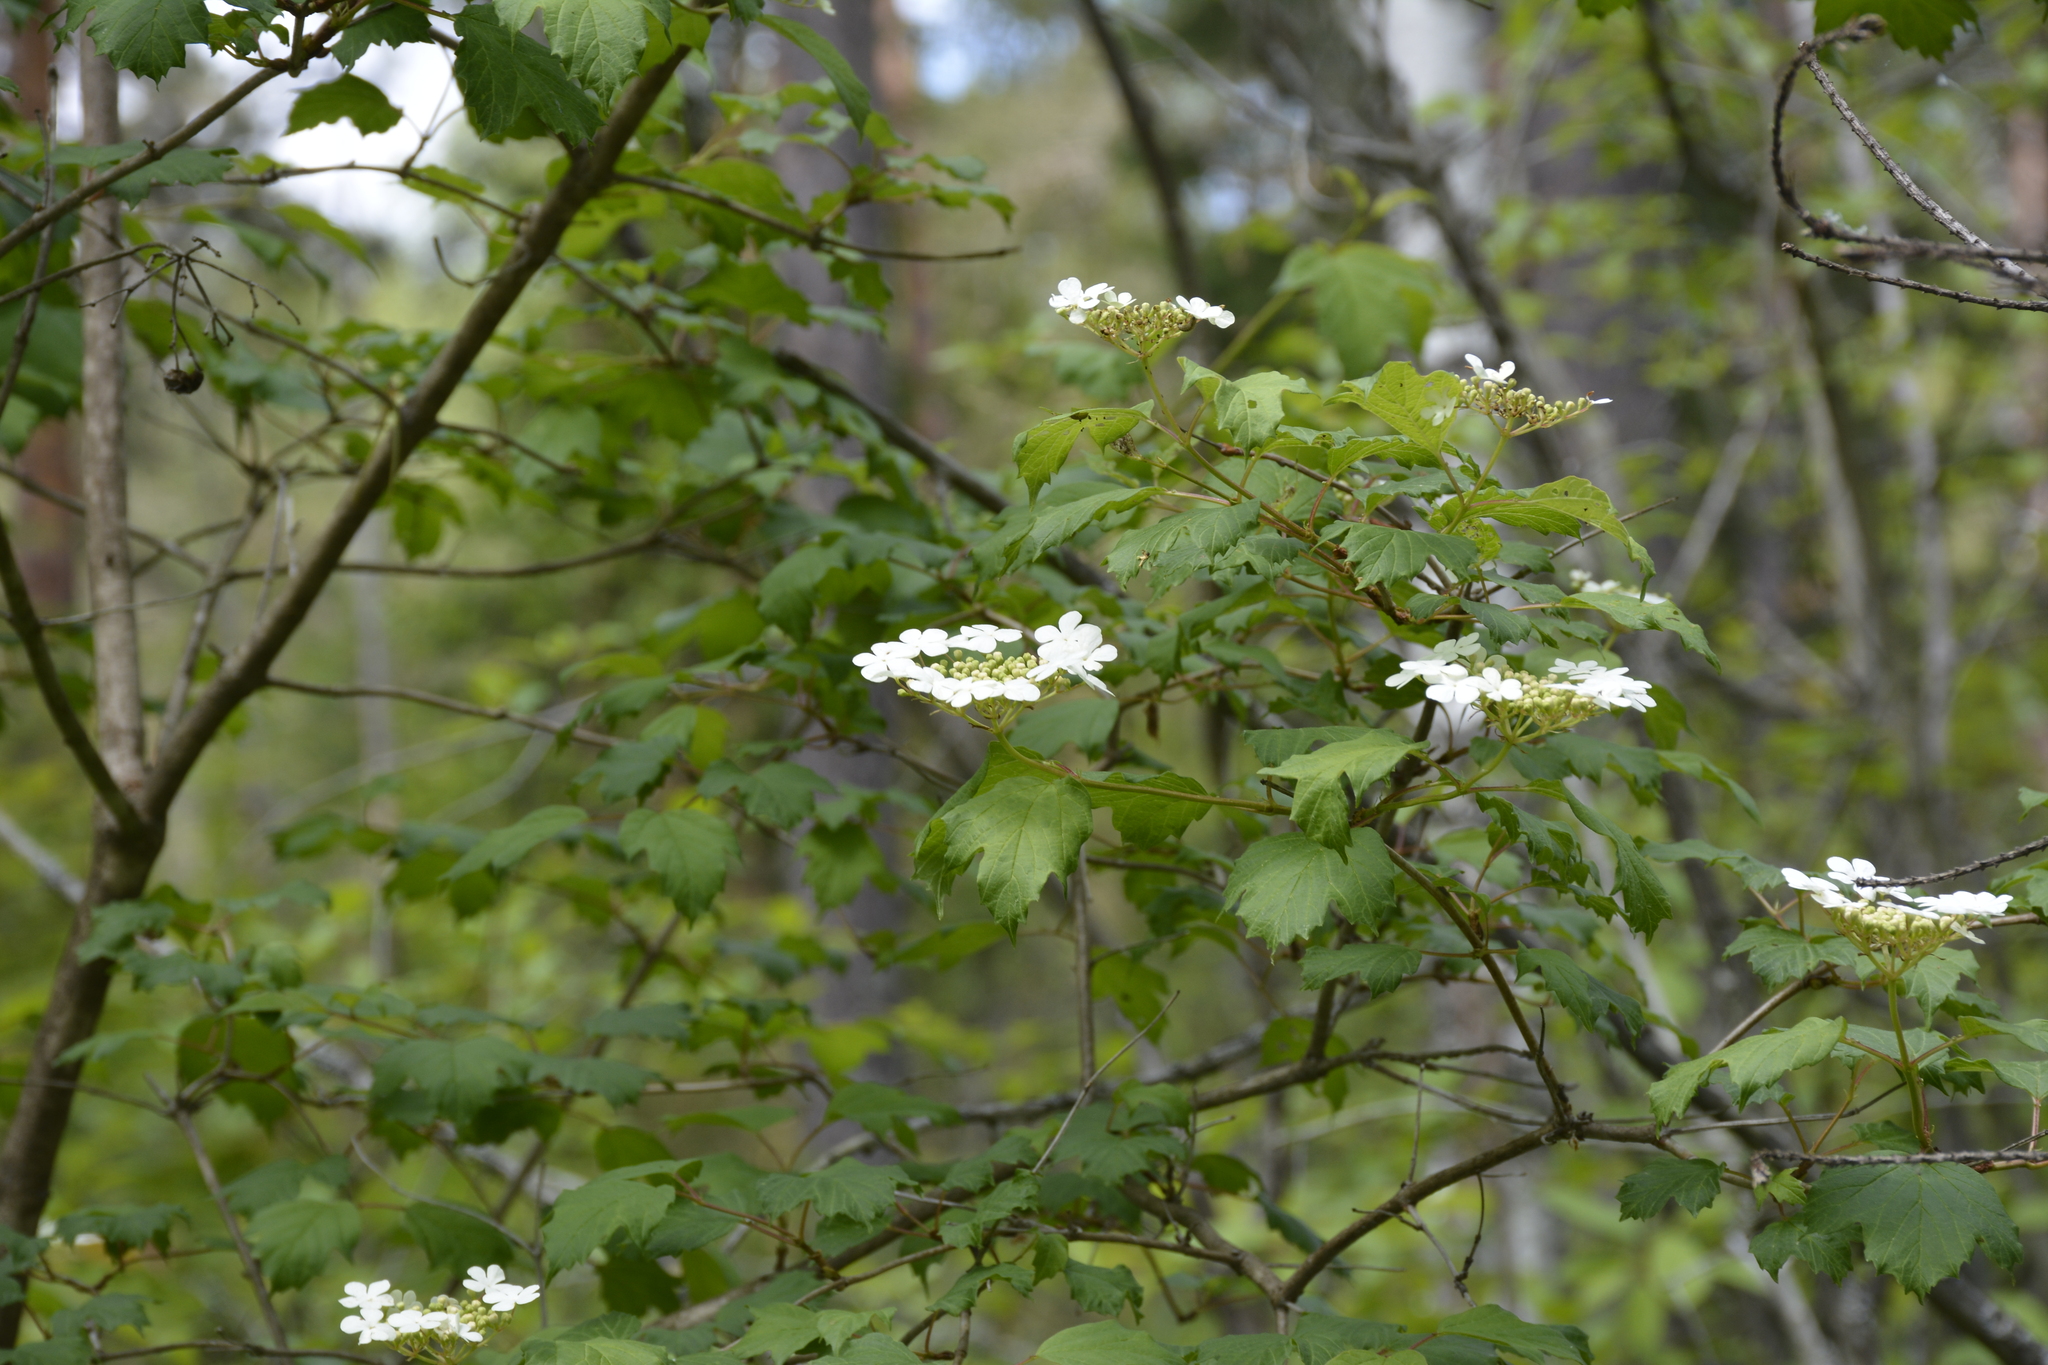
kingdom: Plantae
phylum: Tracheophyta
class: Magnoliopsida
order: Dipsacales
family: Viburnaceae
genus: Viburnum
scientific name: Viburnum opulus
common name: Guelder-rose
